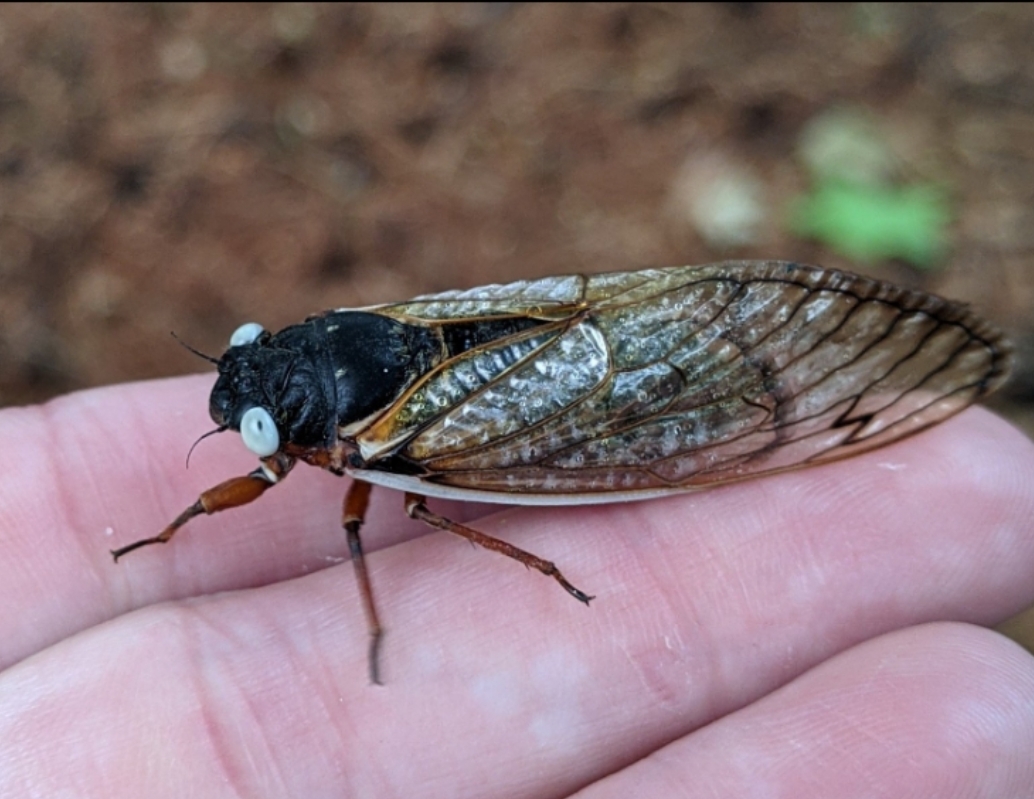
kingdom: Animalia
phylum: Arthropoda
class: Insecta
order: Hemiptera
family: Cicadidae
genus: Magicicada
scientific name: Magicicada septendecim
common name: Periodical cicada
